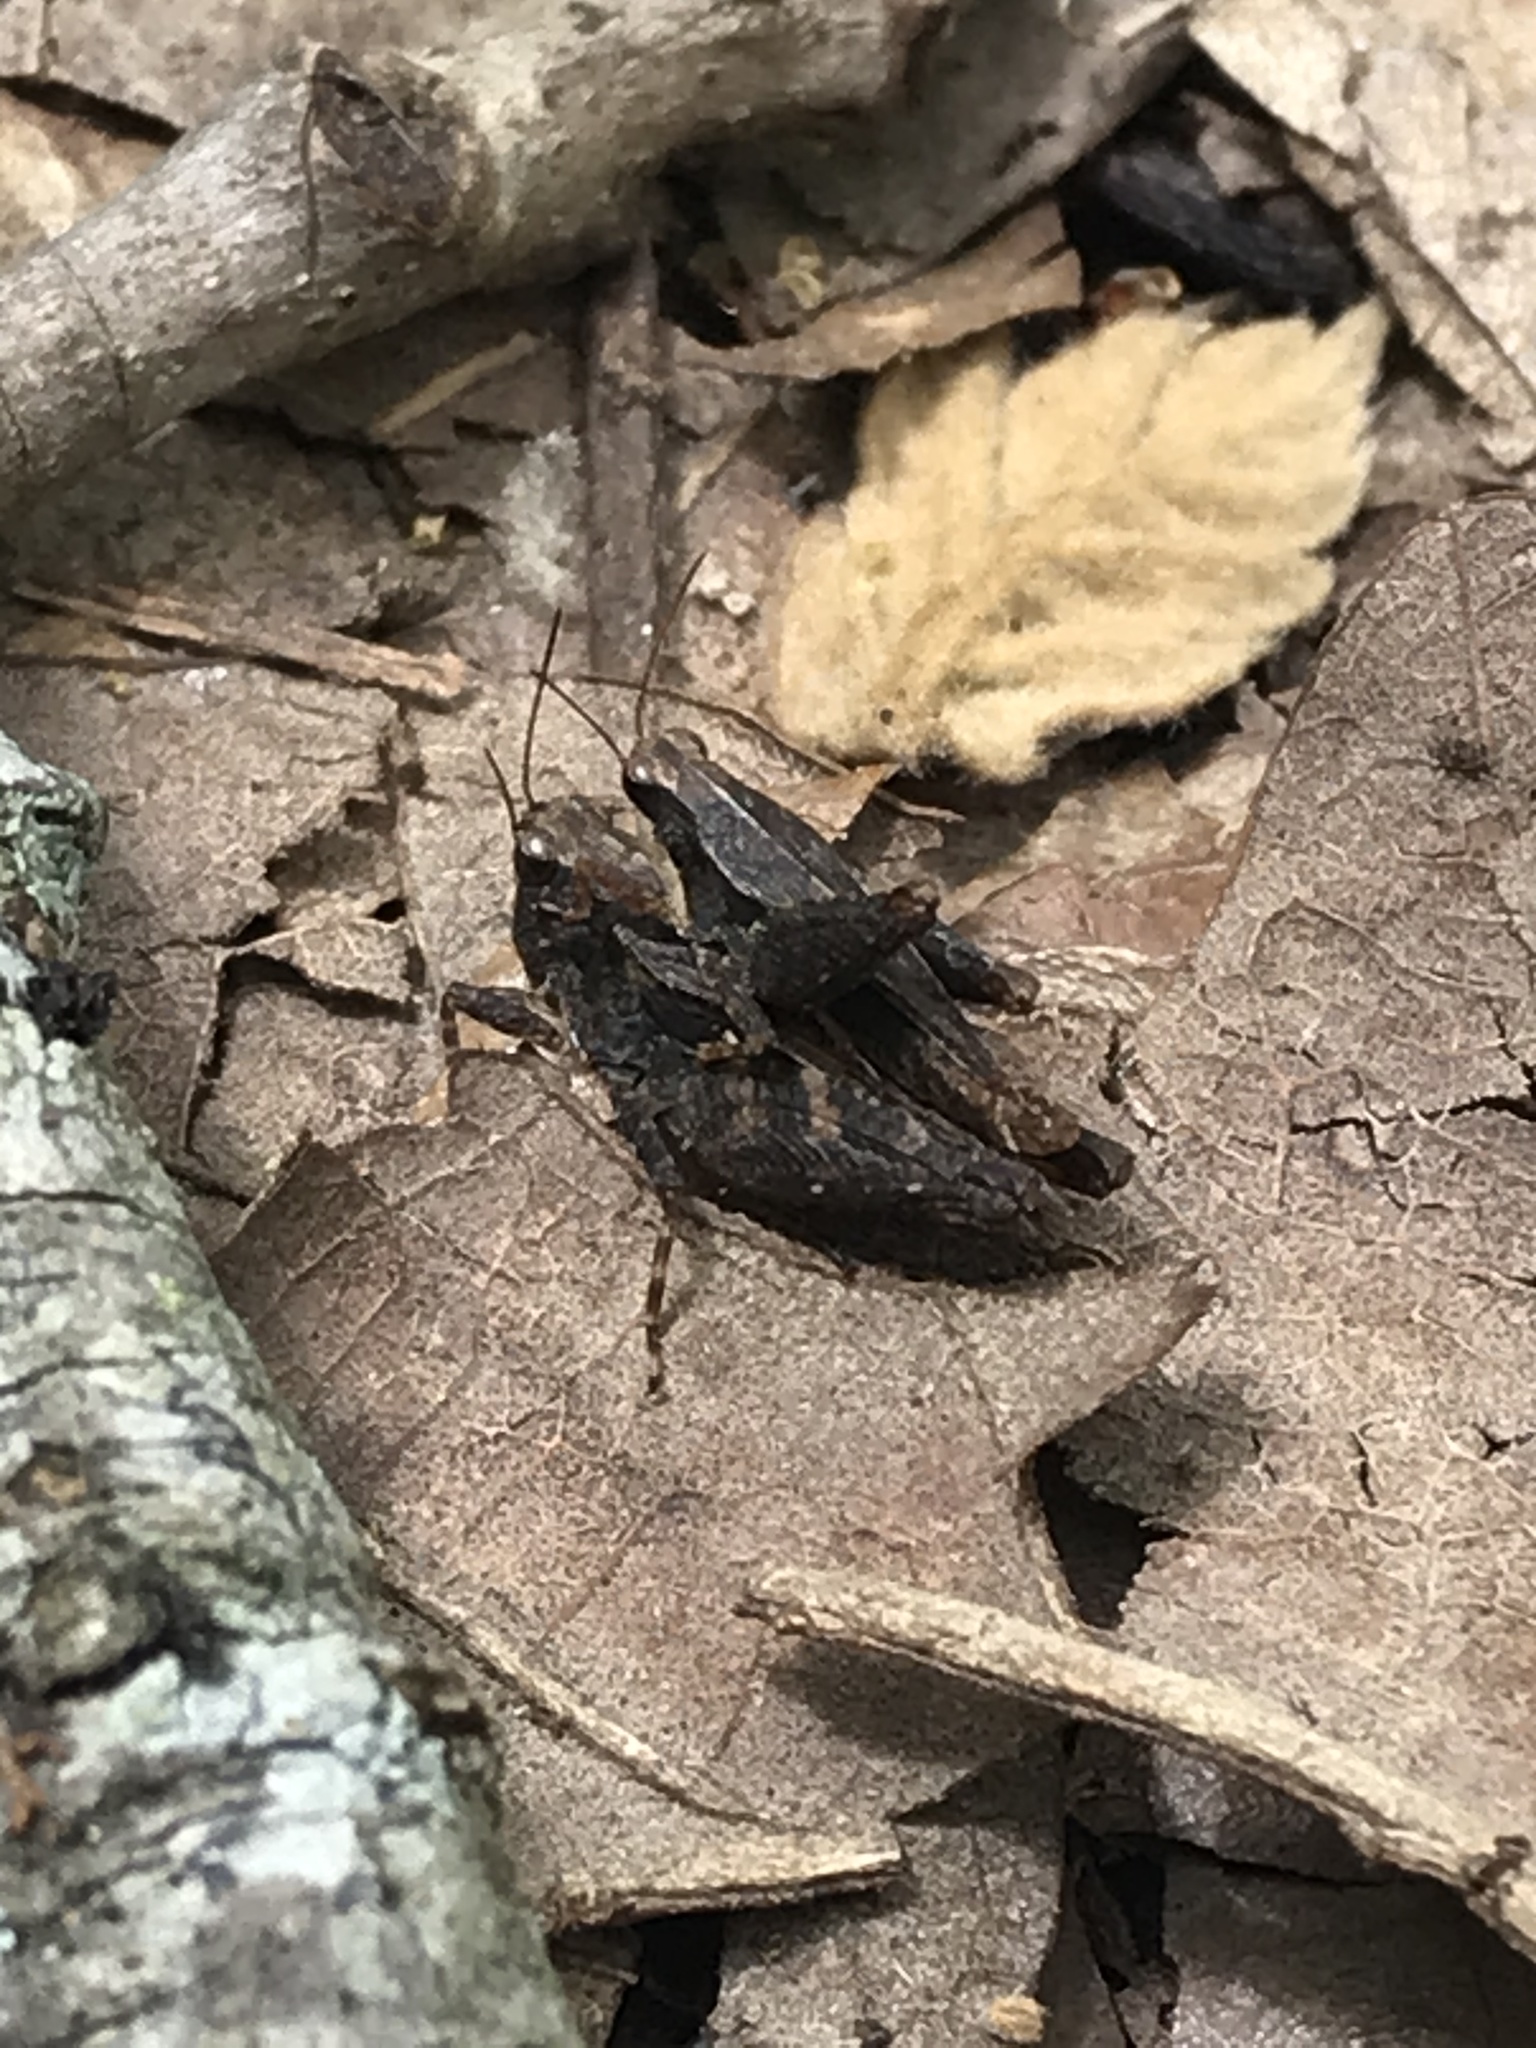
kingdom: Animalia
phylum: Arthropoda
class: Insecta
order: Orthoptera
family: Tetrigidae
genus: Tettigidea
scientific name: Tettigidea laterale
